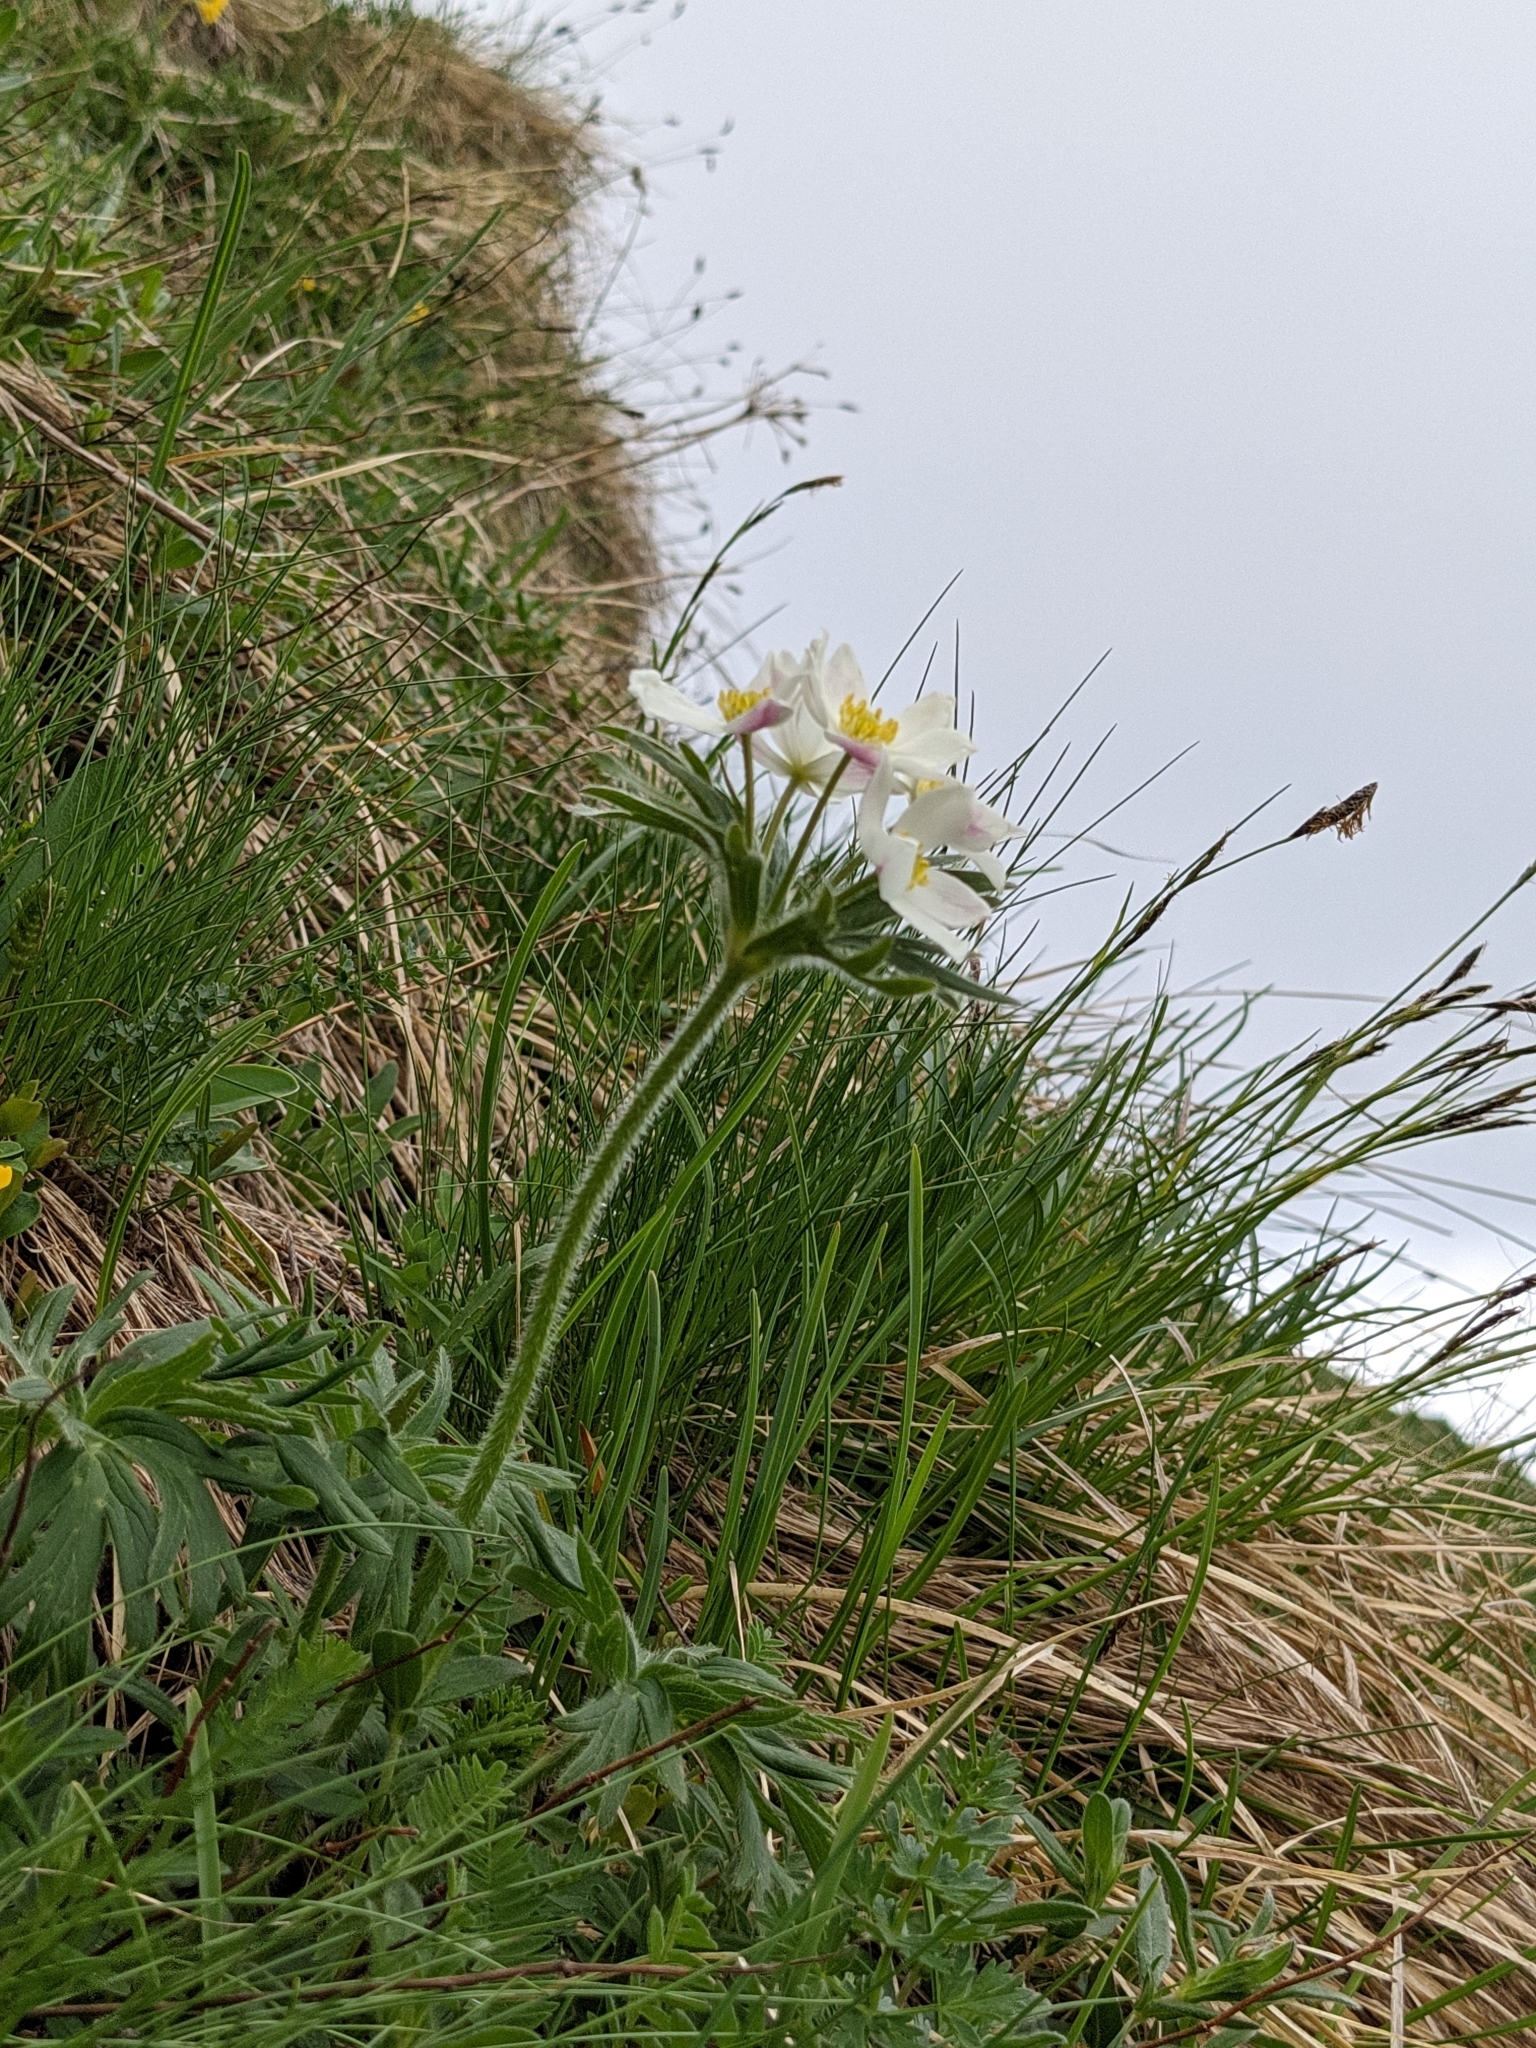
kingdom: Plantae
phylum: Tracheophyta
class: Magnoliopsida
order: Ranunculales
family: Ranunculaceae
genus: Anemonastrum
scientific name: Anemonastrum narcissiflorum
